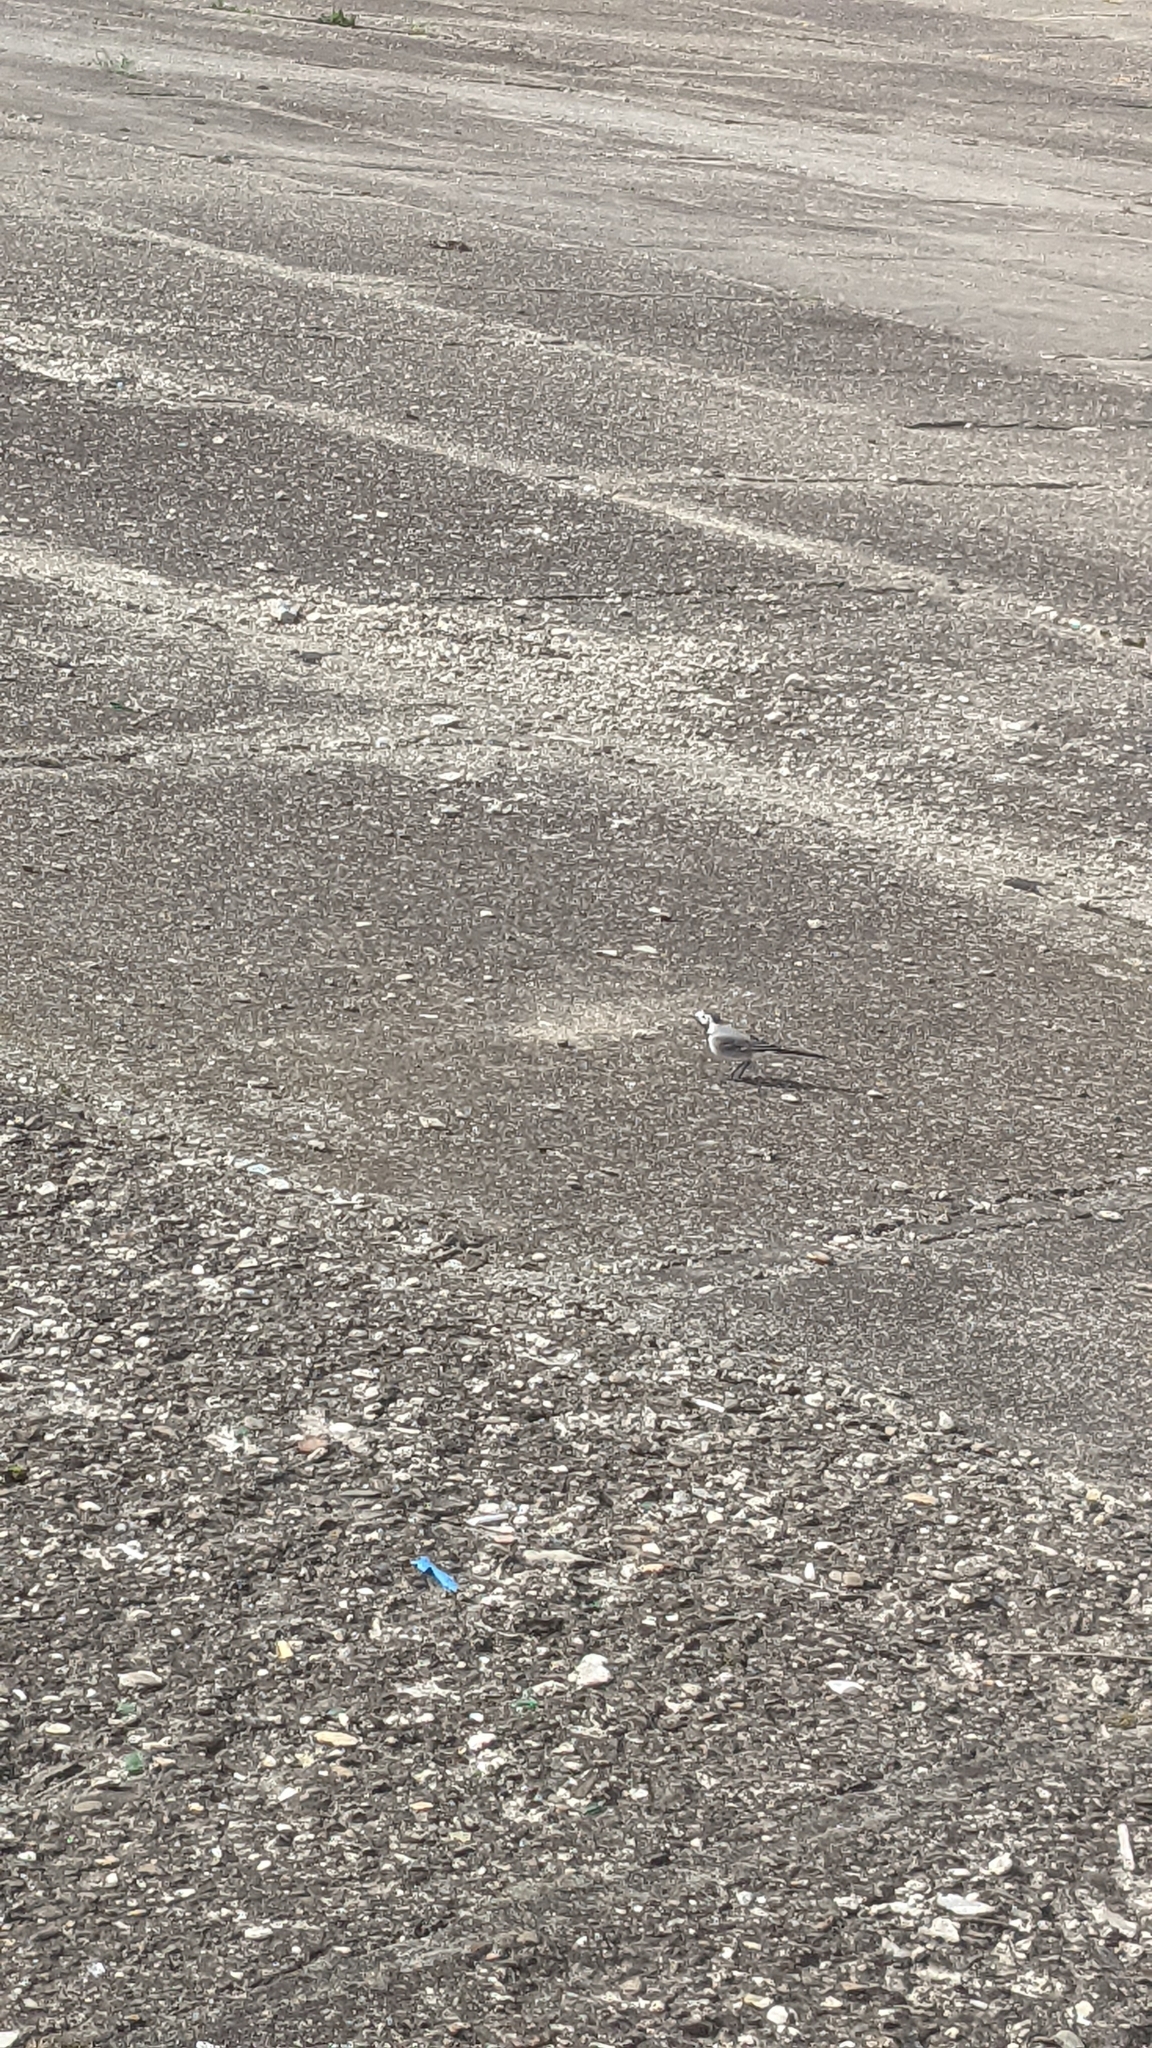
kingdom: Animalia
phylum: Chordata
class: Aves
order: Passeriformes
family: Motacillidae
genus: Motacilla
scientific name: Motacilla alba
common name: White wagtail
